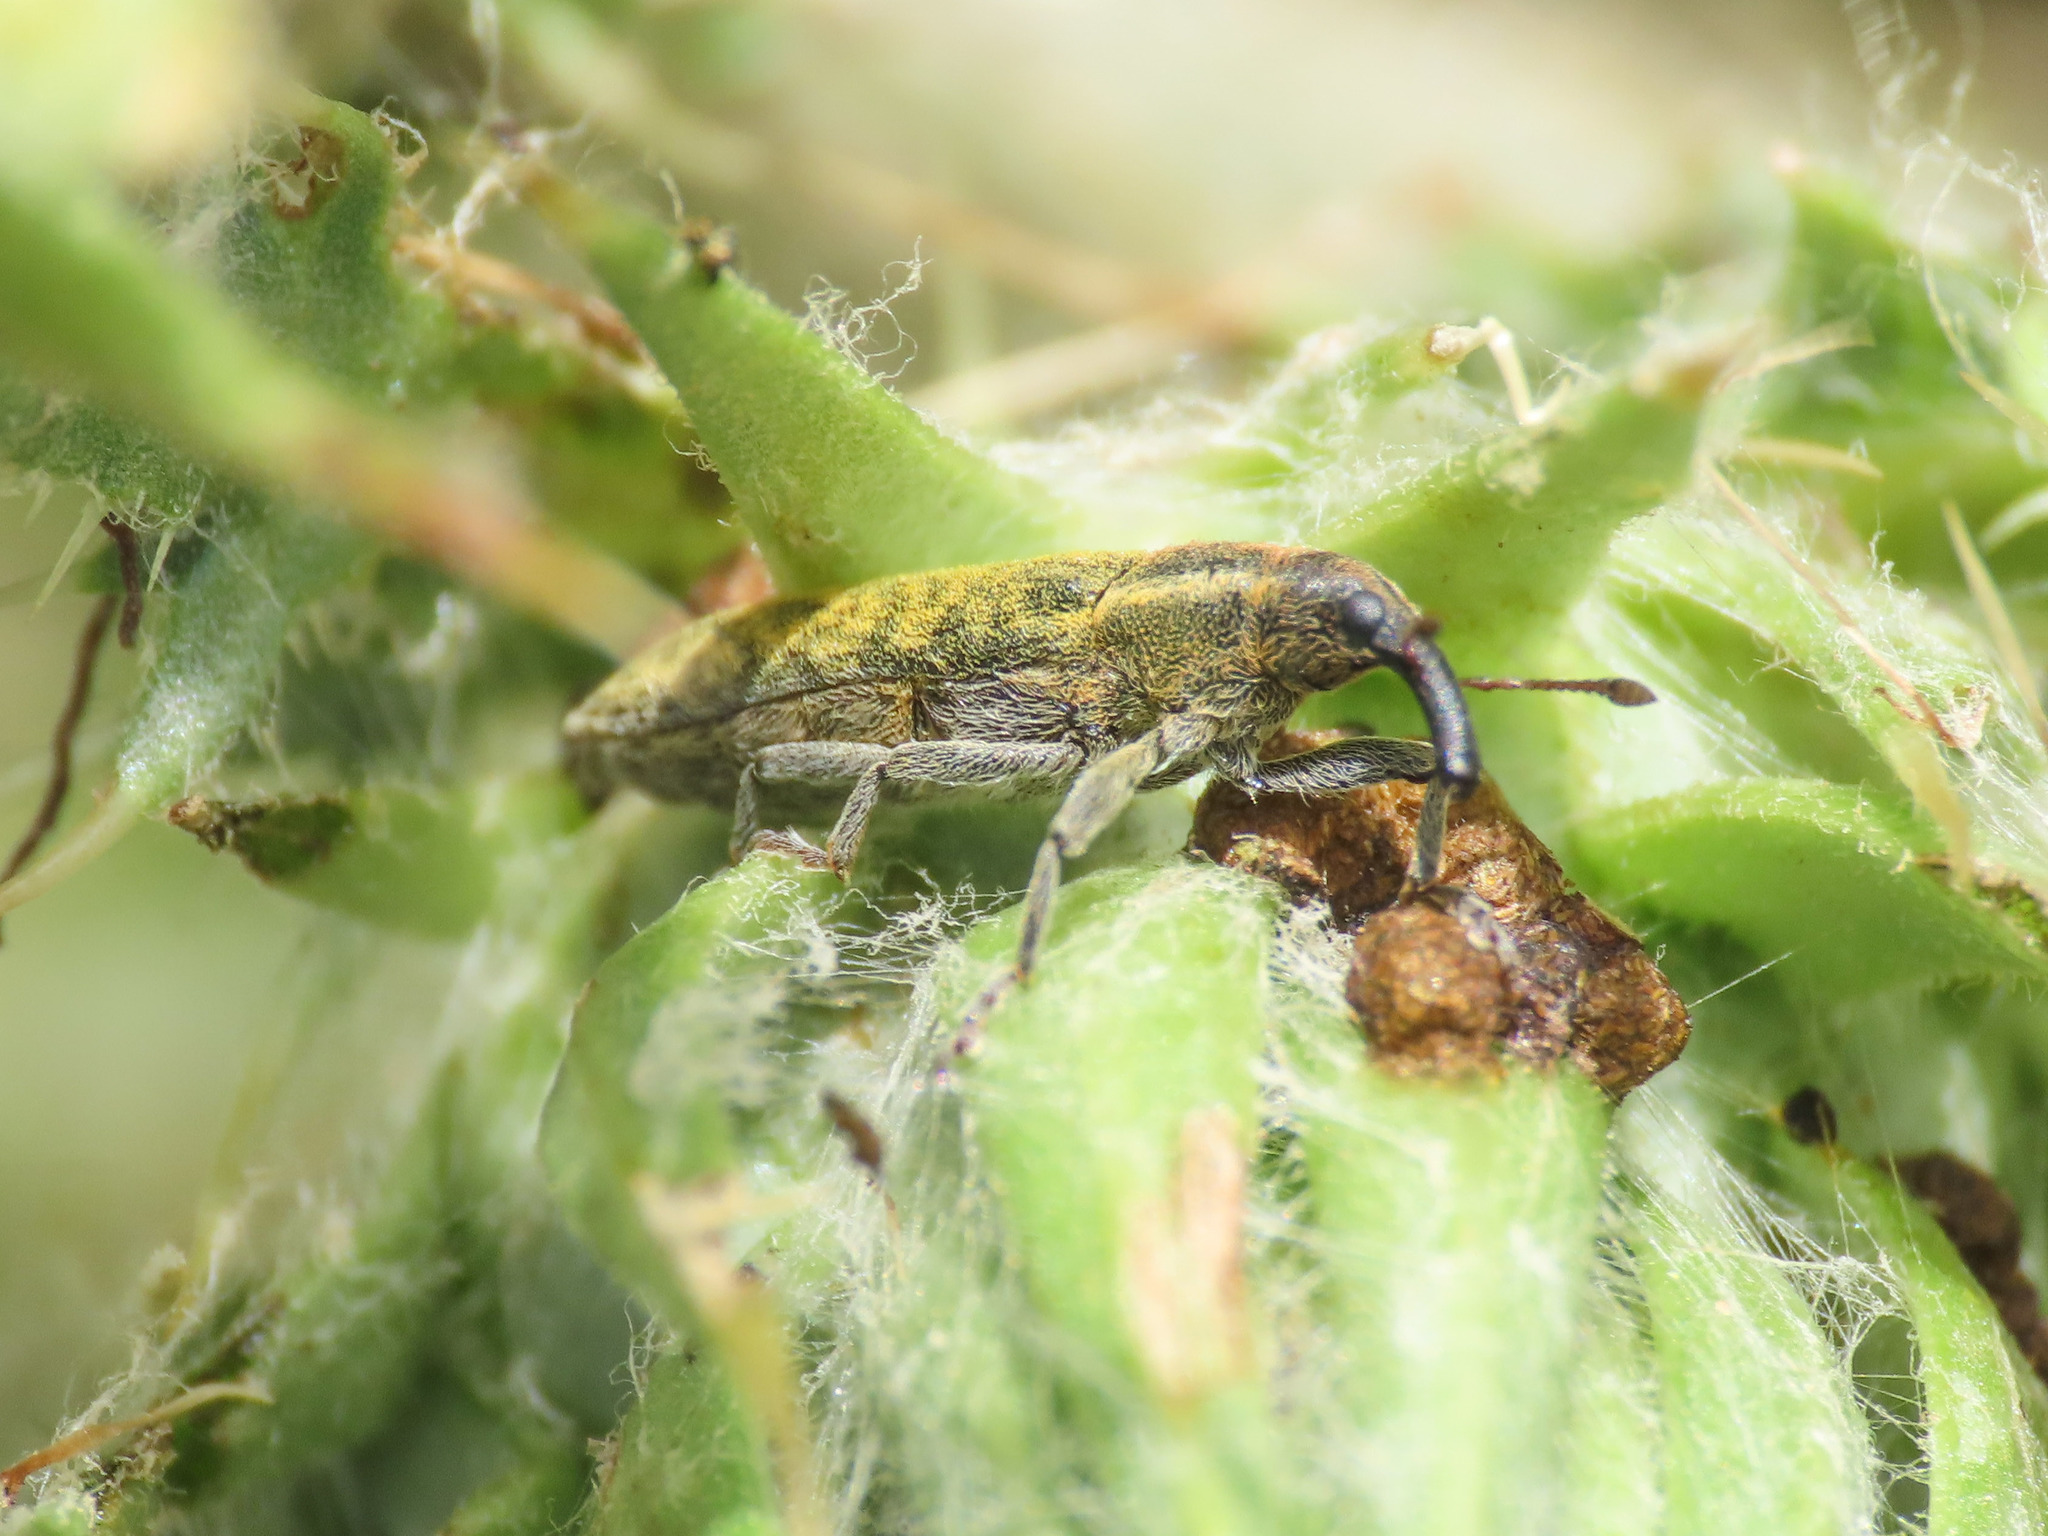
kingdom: Animalia
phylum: Arthropoda
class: Insecta
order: Coleoptera
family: Curculionidae
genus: Lixus
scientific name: Lixus filiformis
